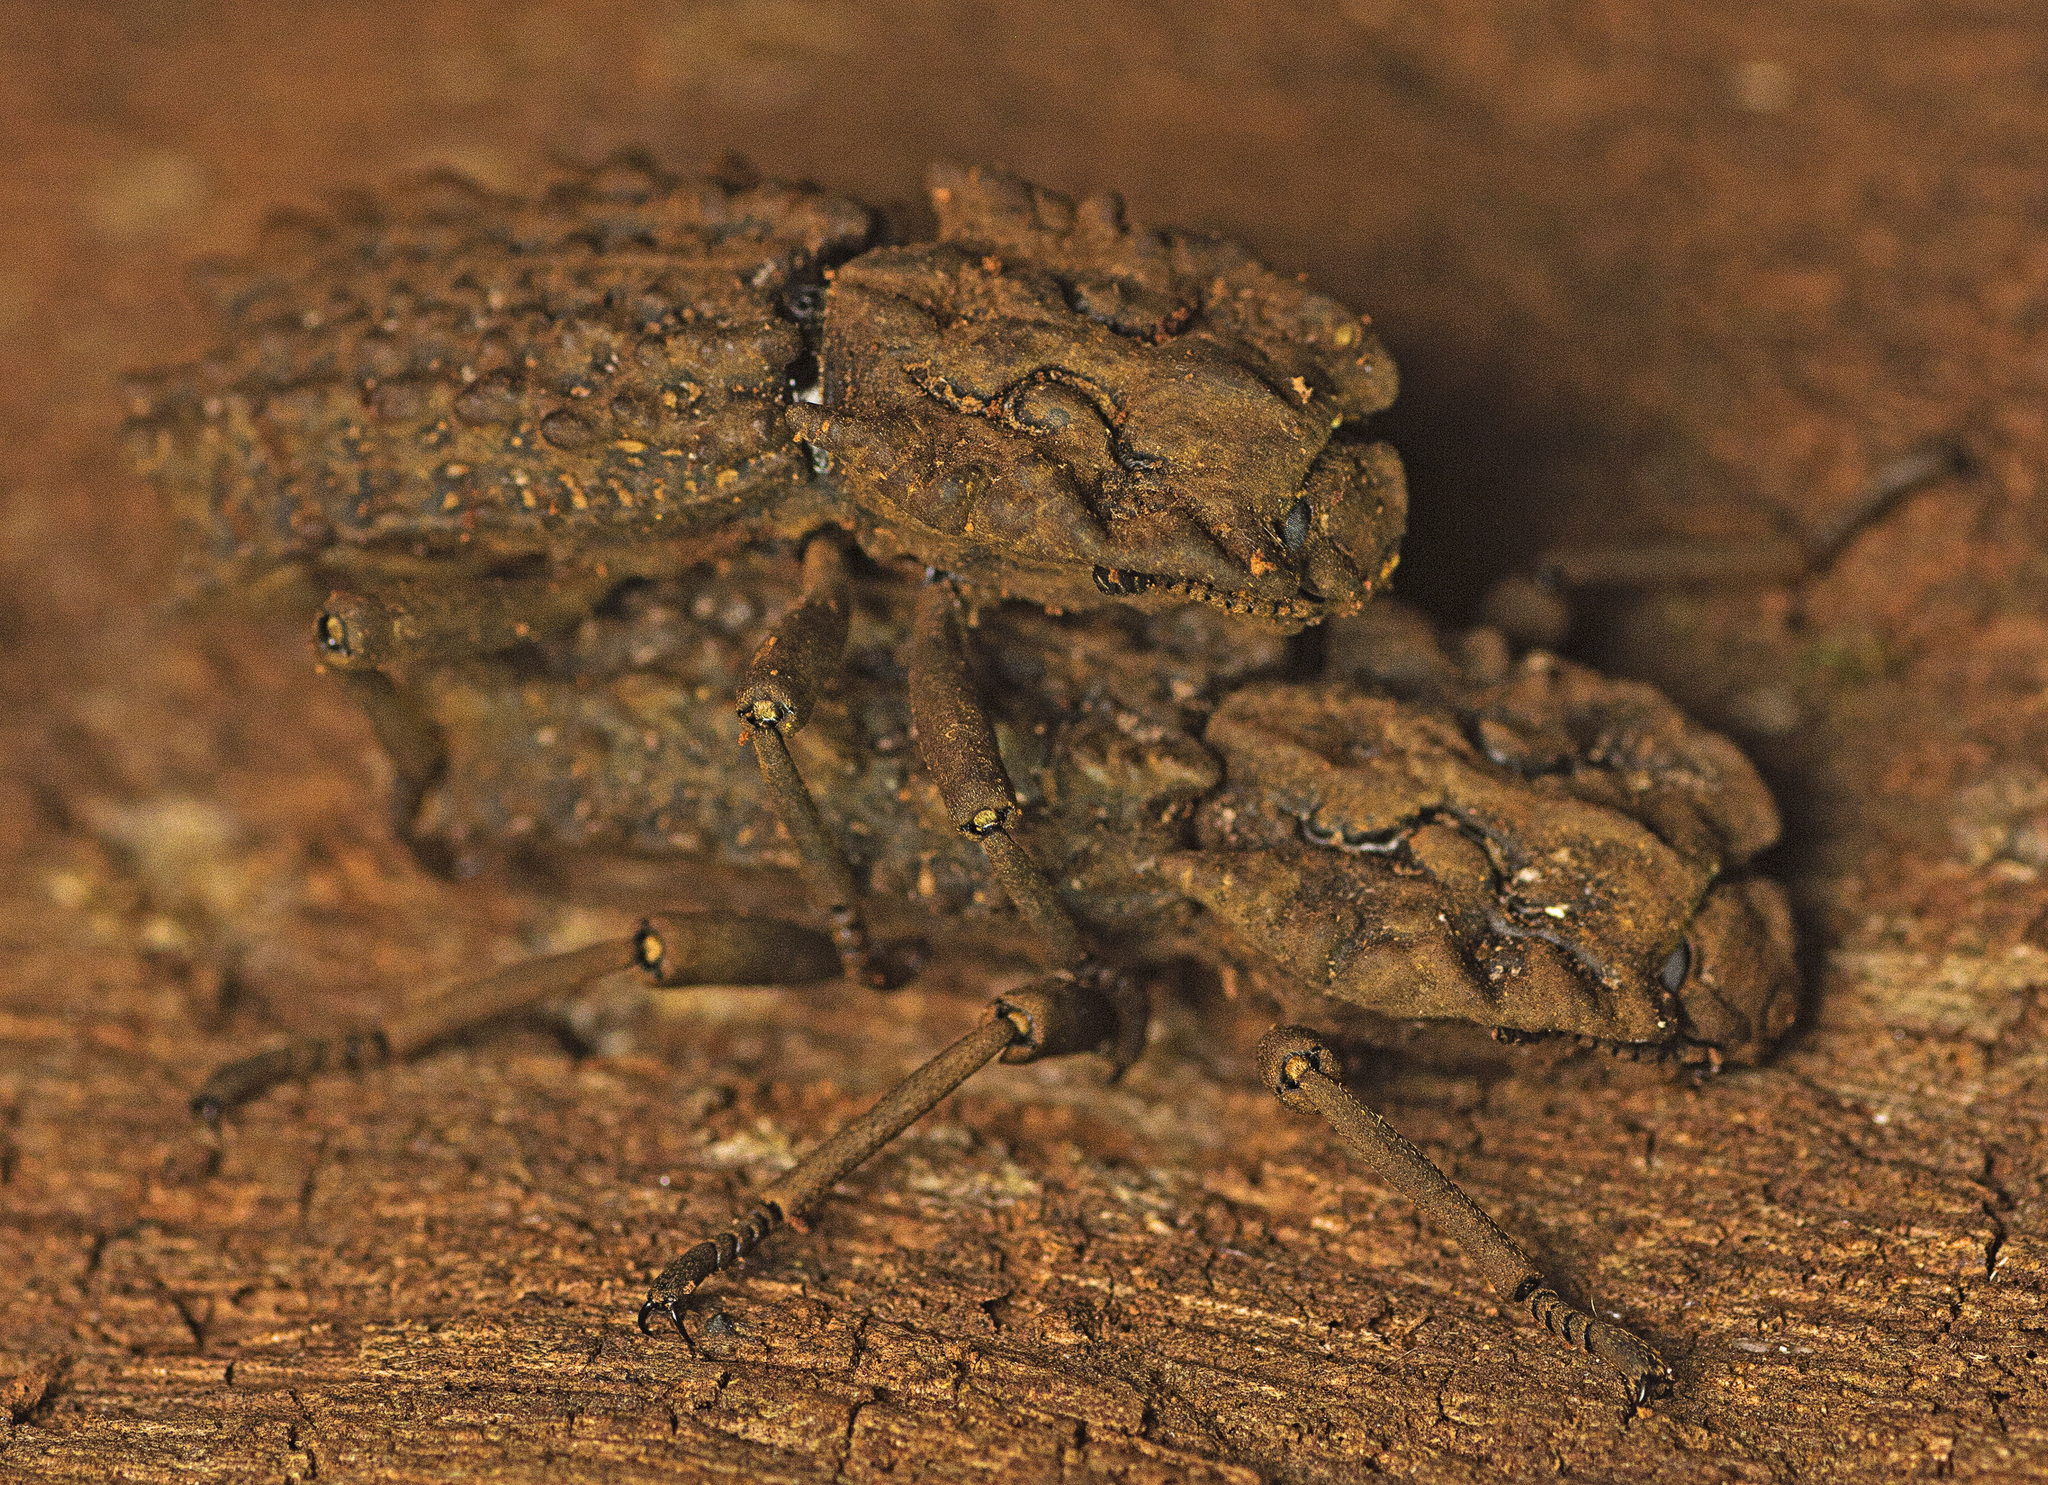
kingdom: Animalia
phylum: Arthropoda
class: Insecta
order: Coleoptera
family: Zopheridae
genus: Zopherosis
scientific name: Zopherosis
